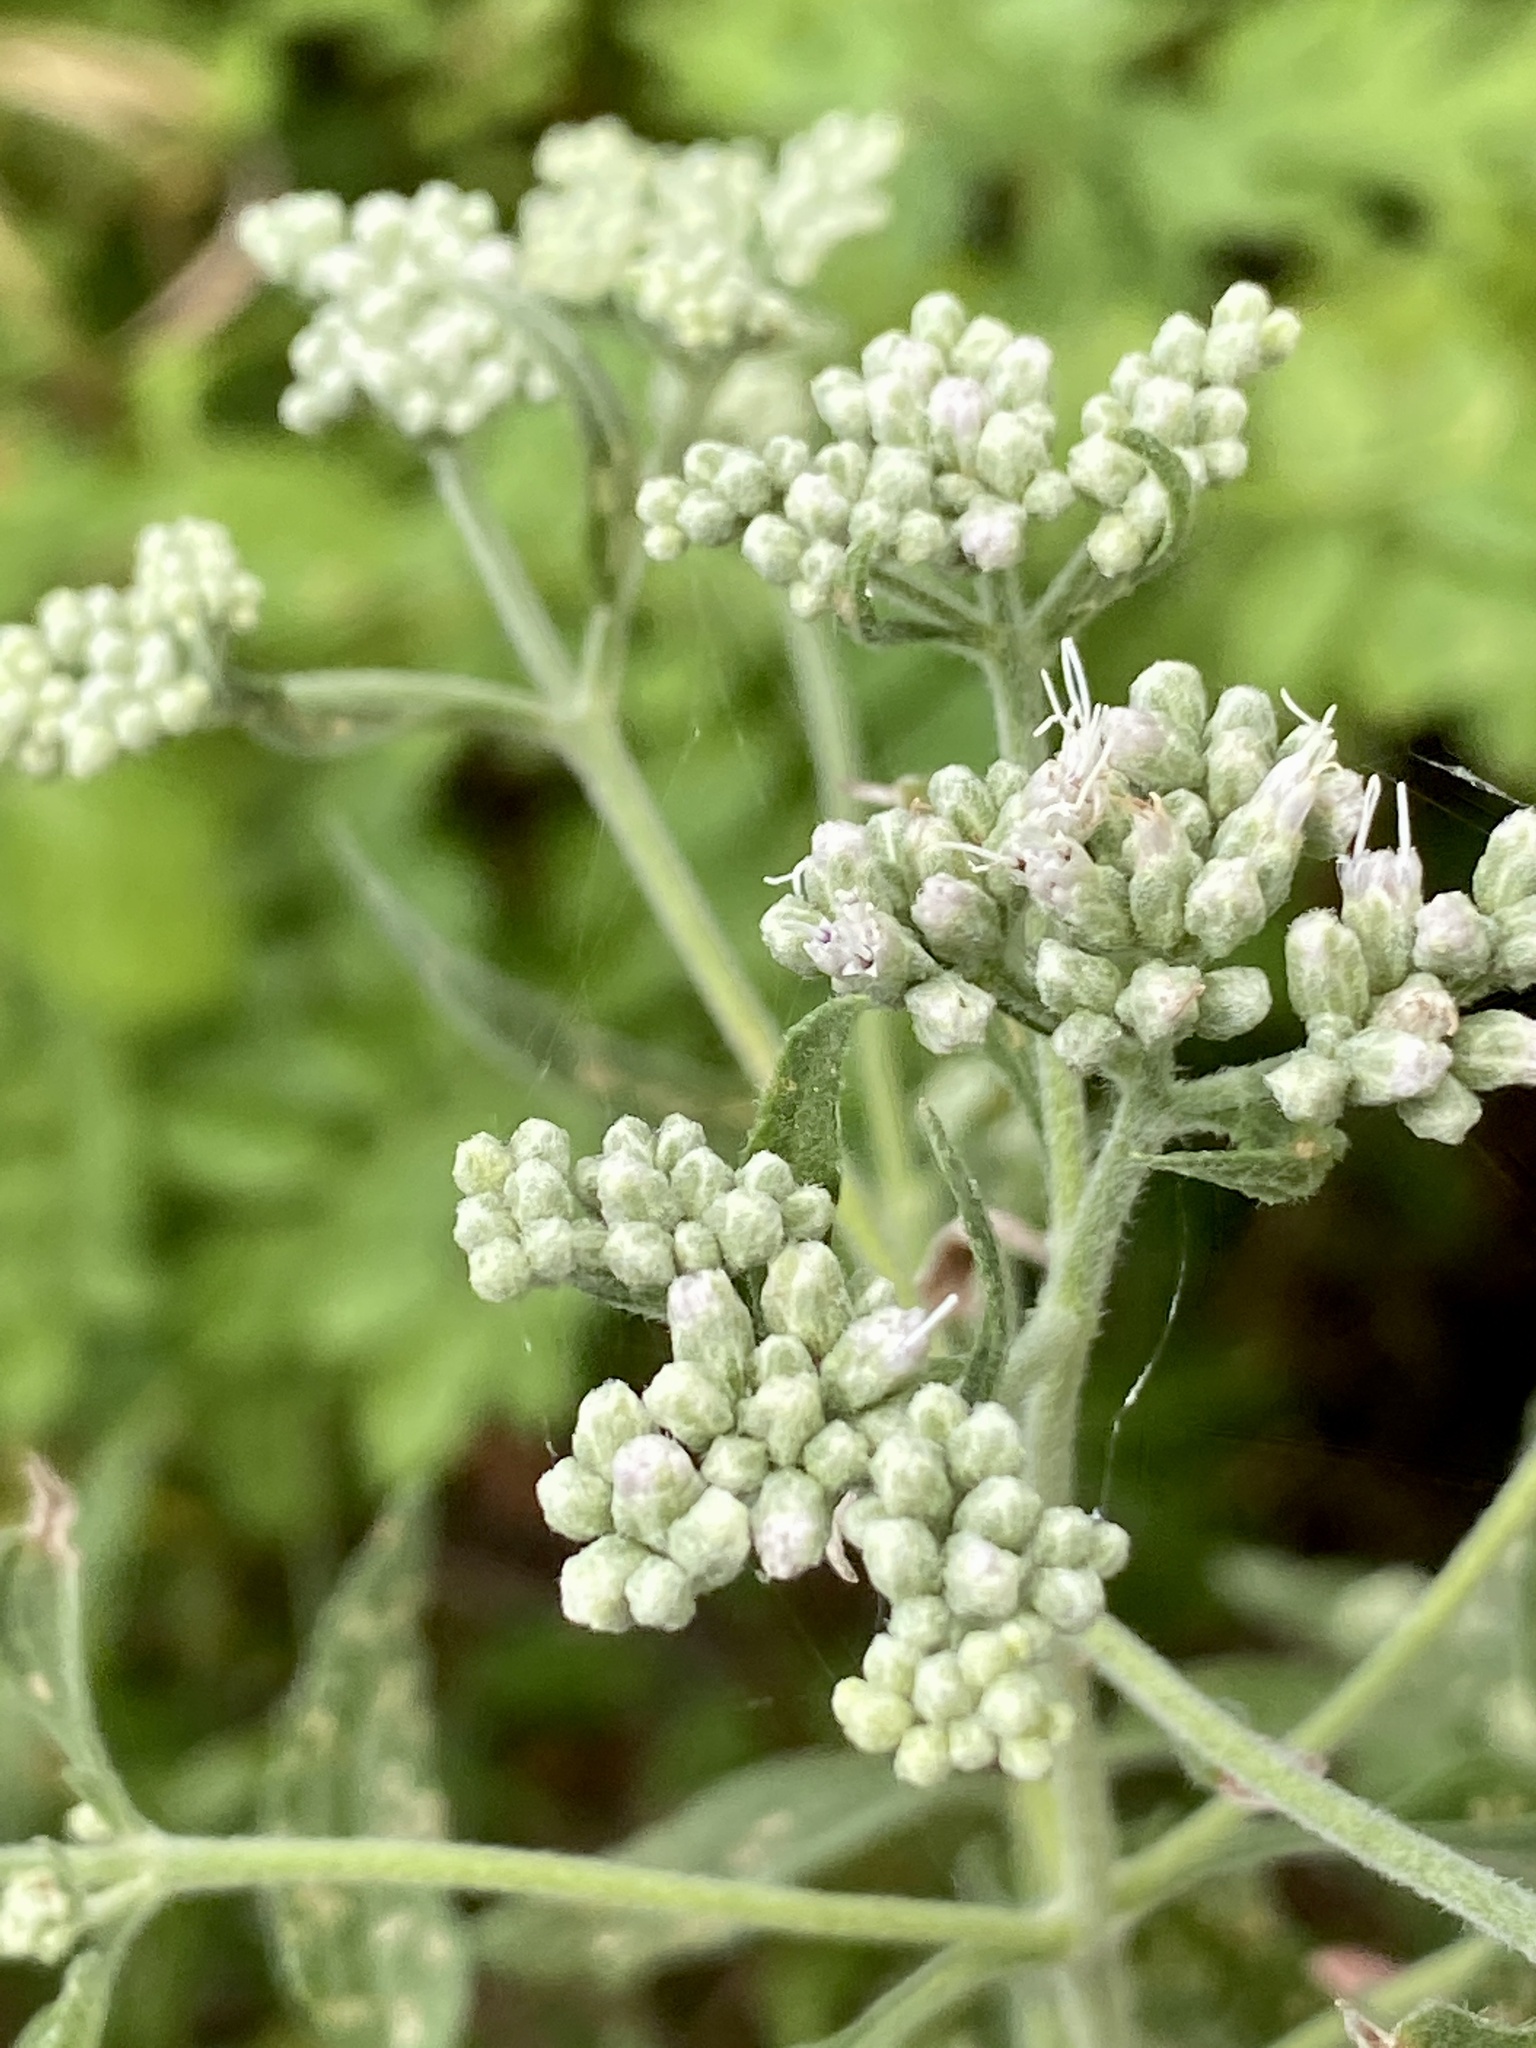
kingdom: Plantae
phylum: Tracheophyta
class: Magnoliopsida
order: Asterales
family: Asteraceae
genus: Eupatorium
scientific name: Eupatorium serotinum
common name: Late boneset
